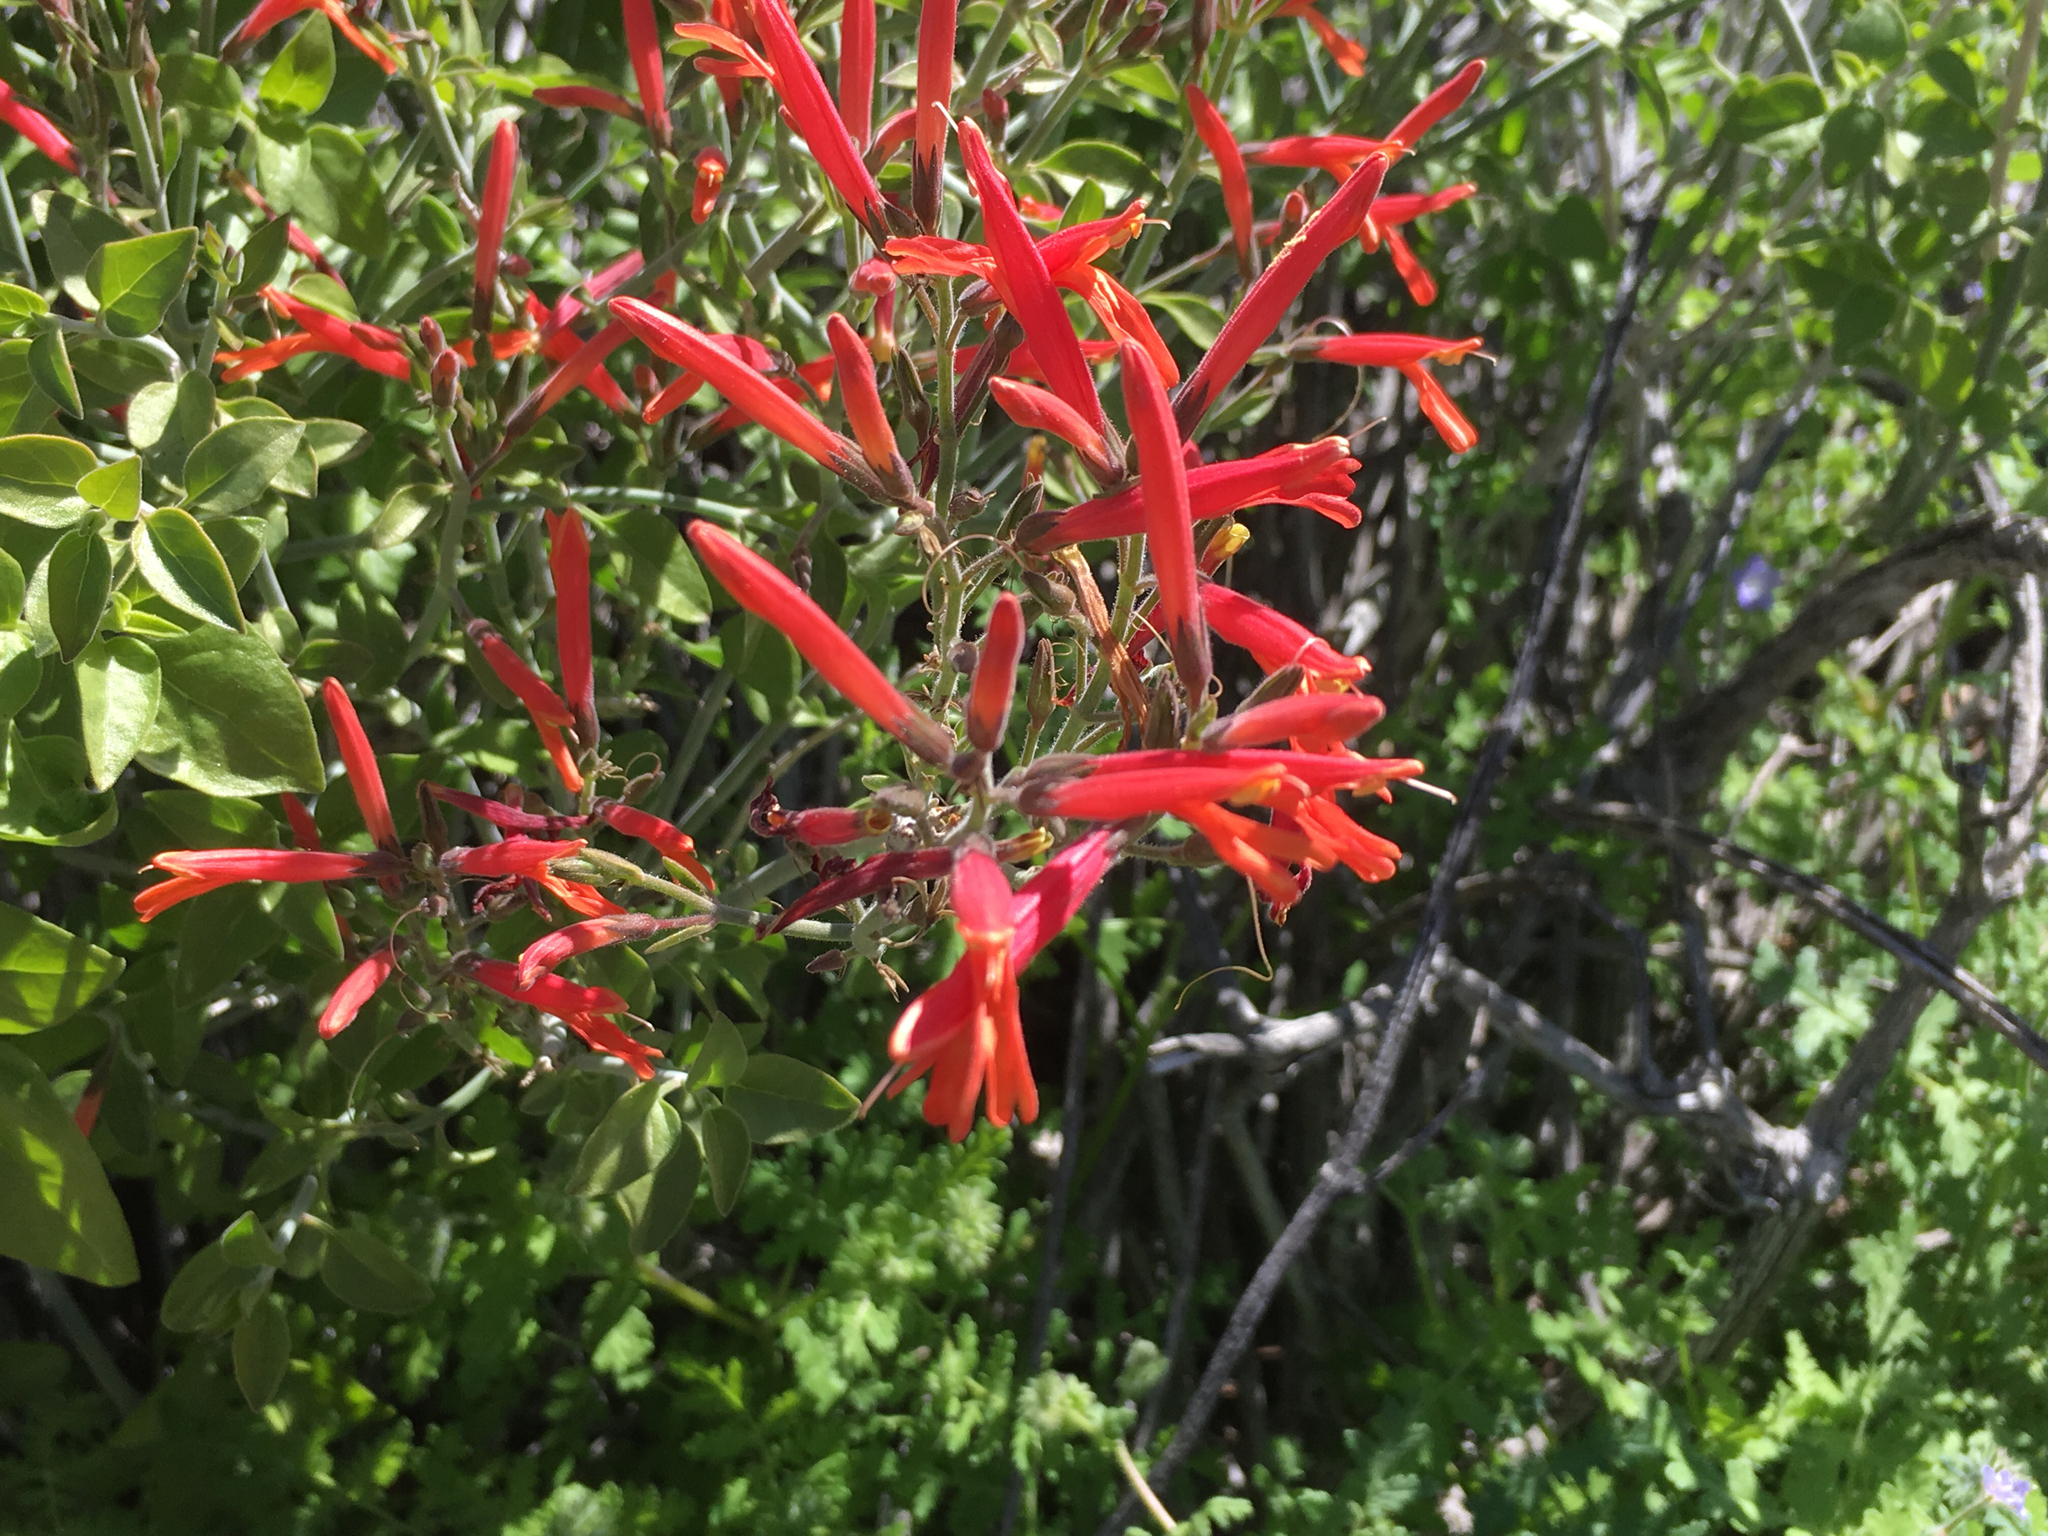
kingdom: Plantae
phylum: Tracheophyta
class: Magnoliopsida
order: Lamiales
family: Acanthaceae
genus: Justicia
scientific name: Justicia californica
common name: Chuparosa-honeysuckle
